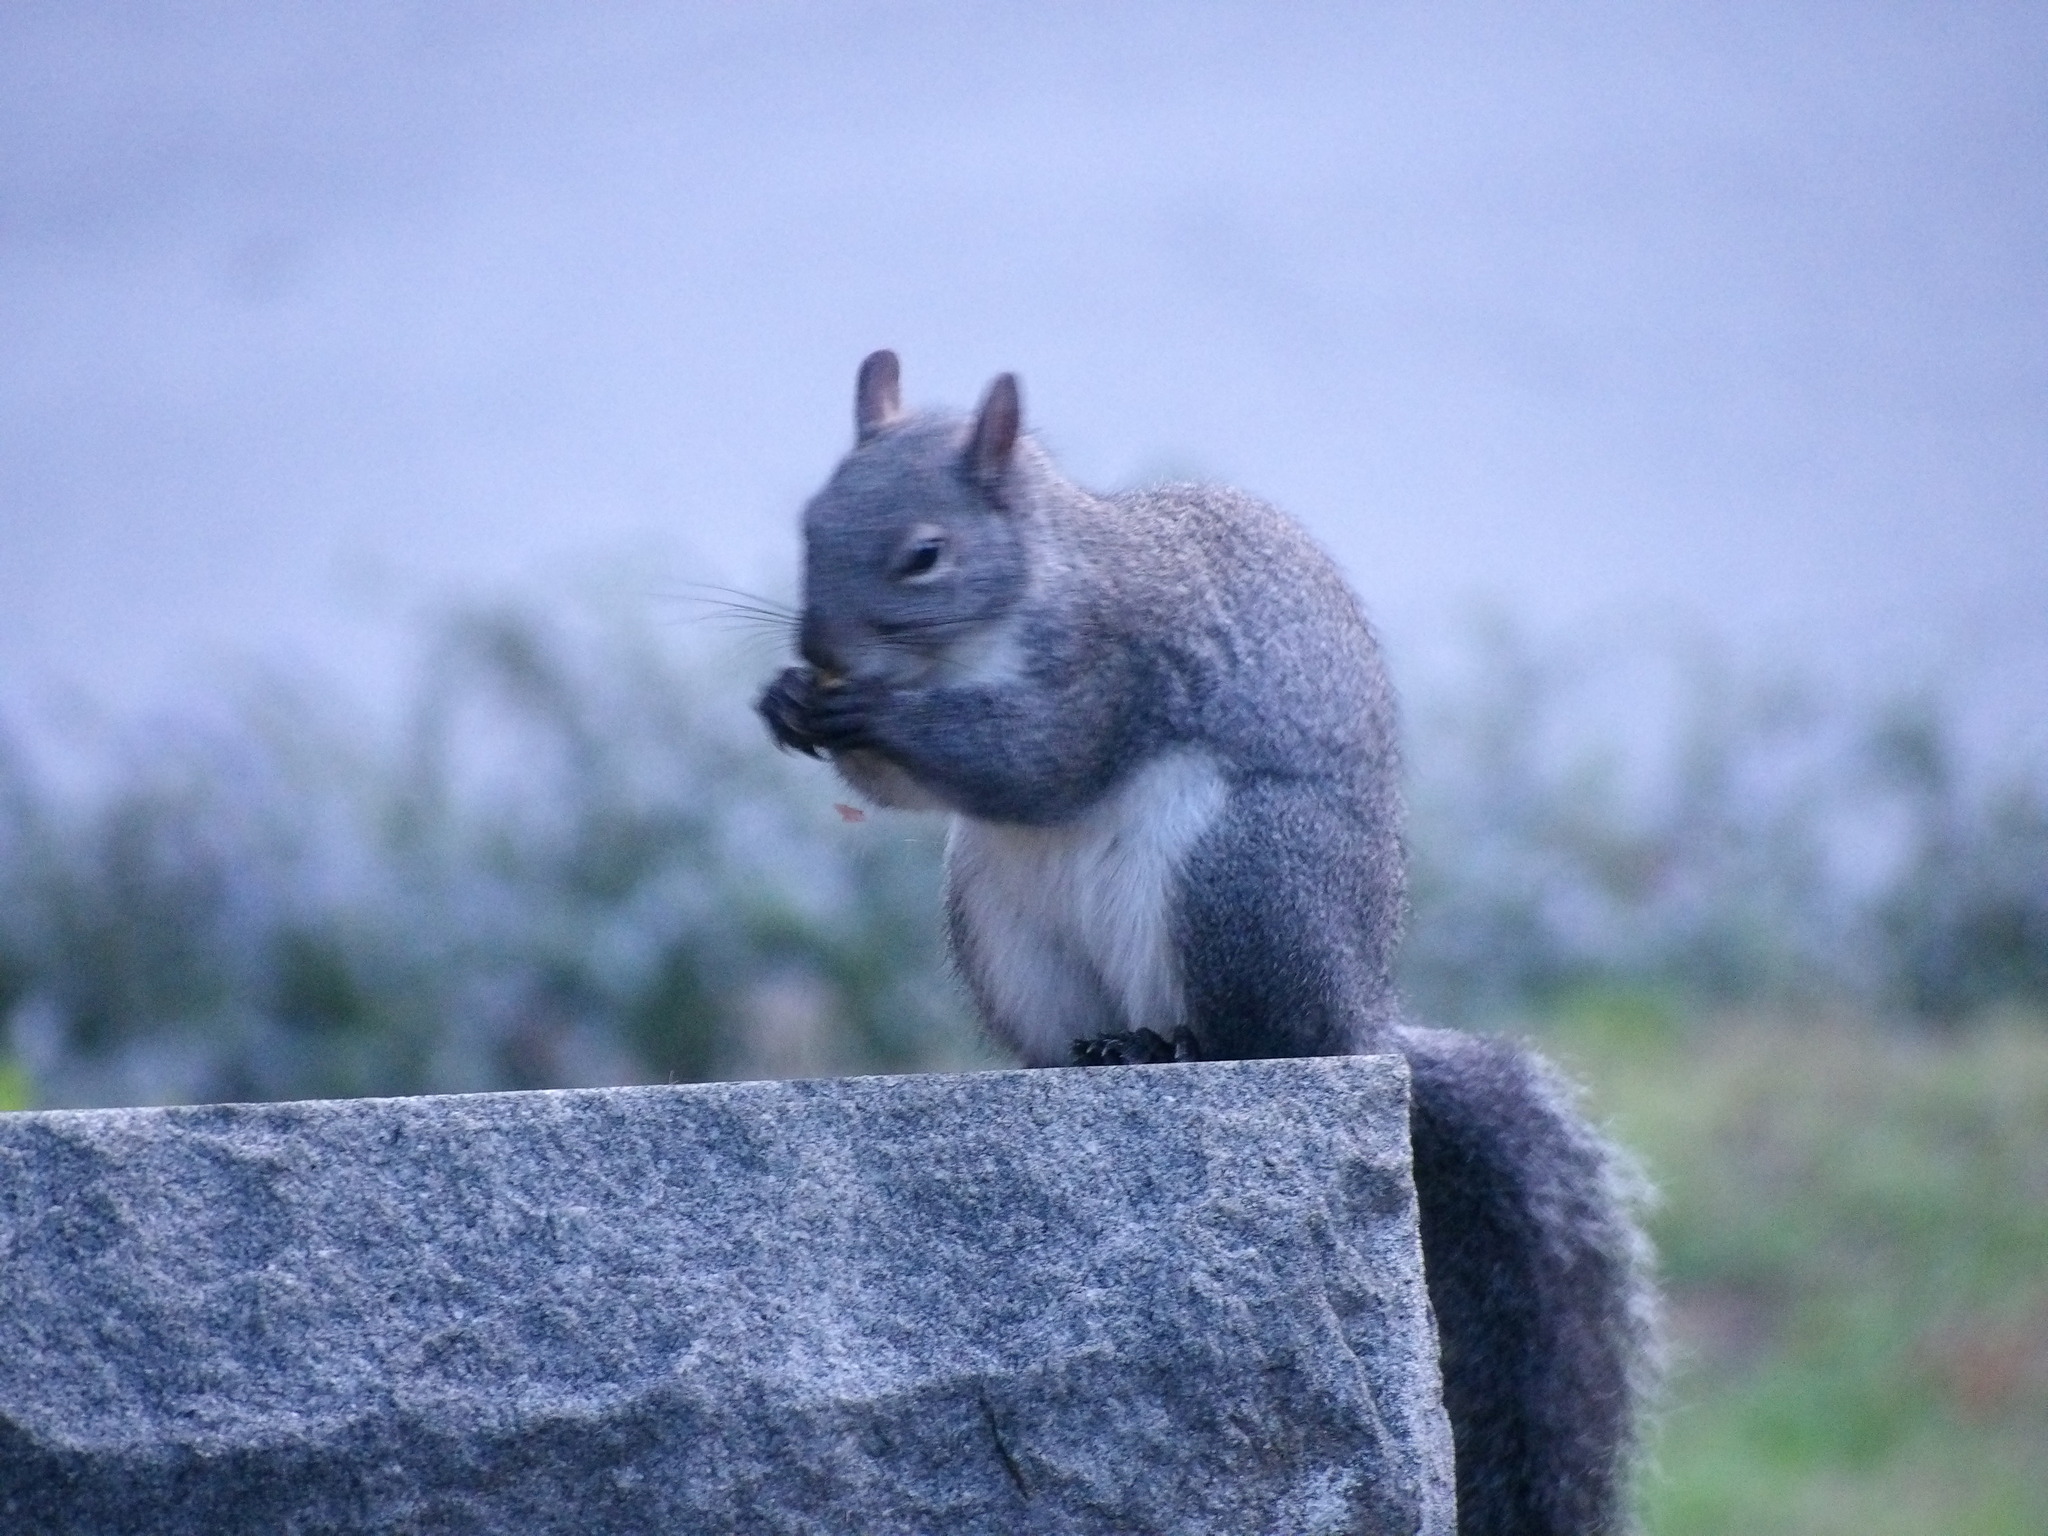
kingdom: Animalia
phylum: Chordata
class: Mammalia
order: Rodentia
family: Sciuridae
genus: Sciurus
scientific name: Sciurus griseus
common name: Western gray squirrel
